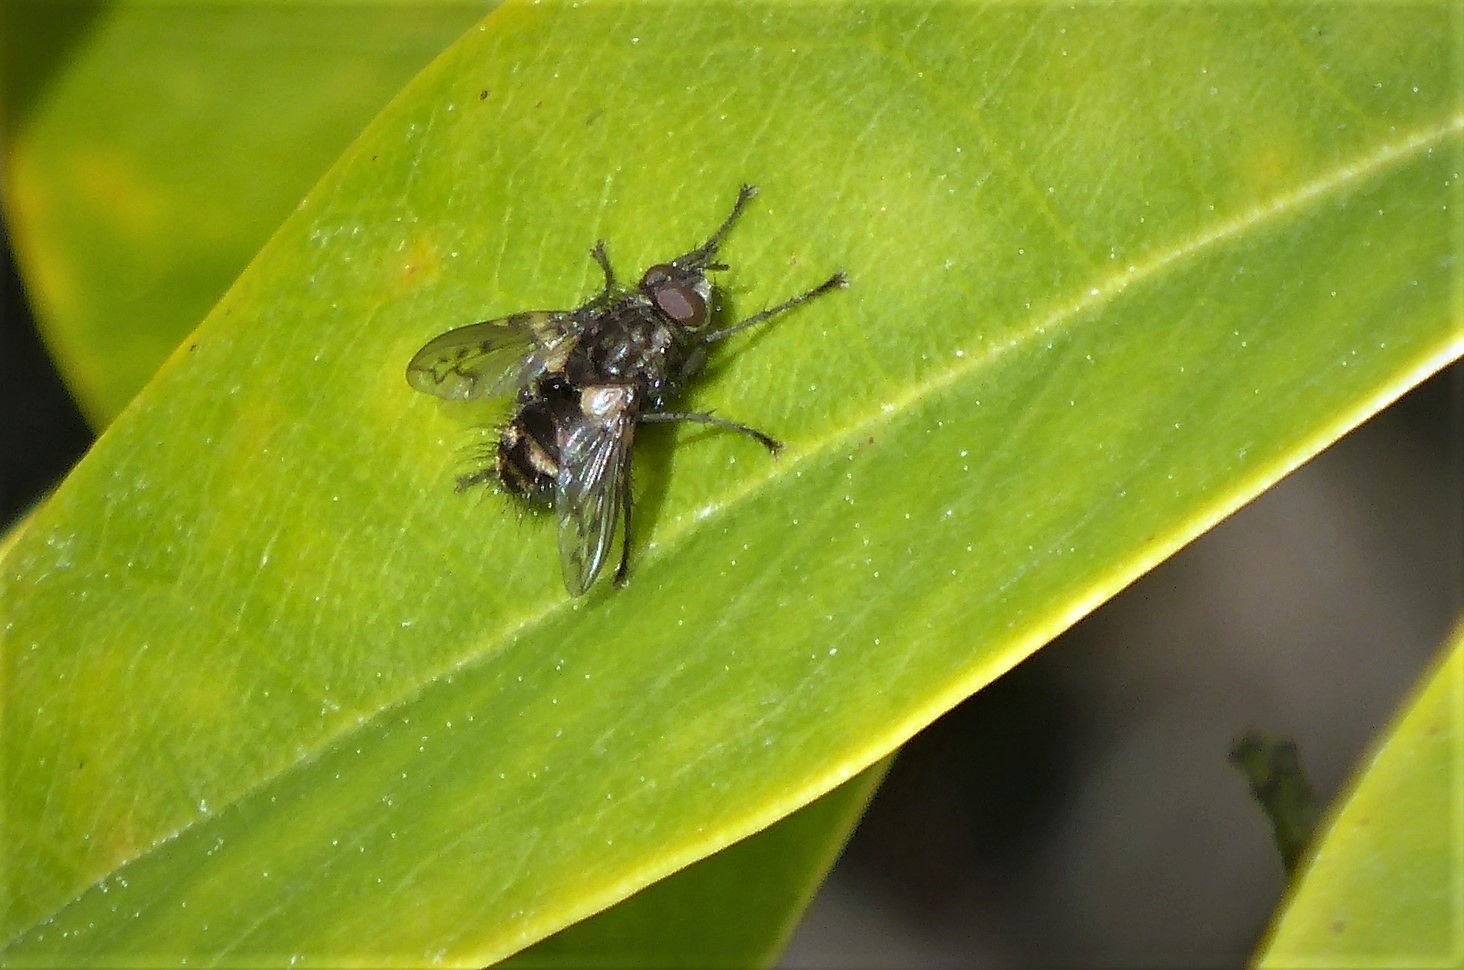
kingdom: Animalia
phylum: Arthropoda
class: Insecta
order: Diptera
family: Tachinidae
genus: Mallochomacquartia
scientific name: Mallochomacquartia vexata
